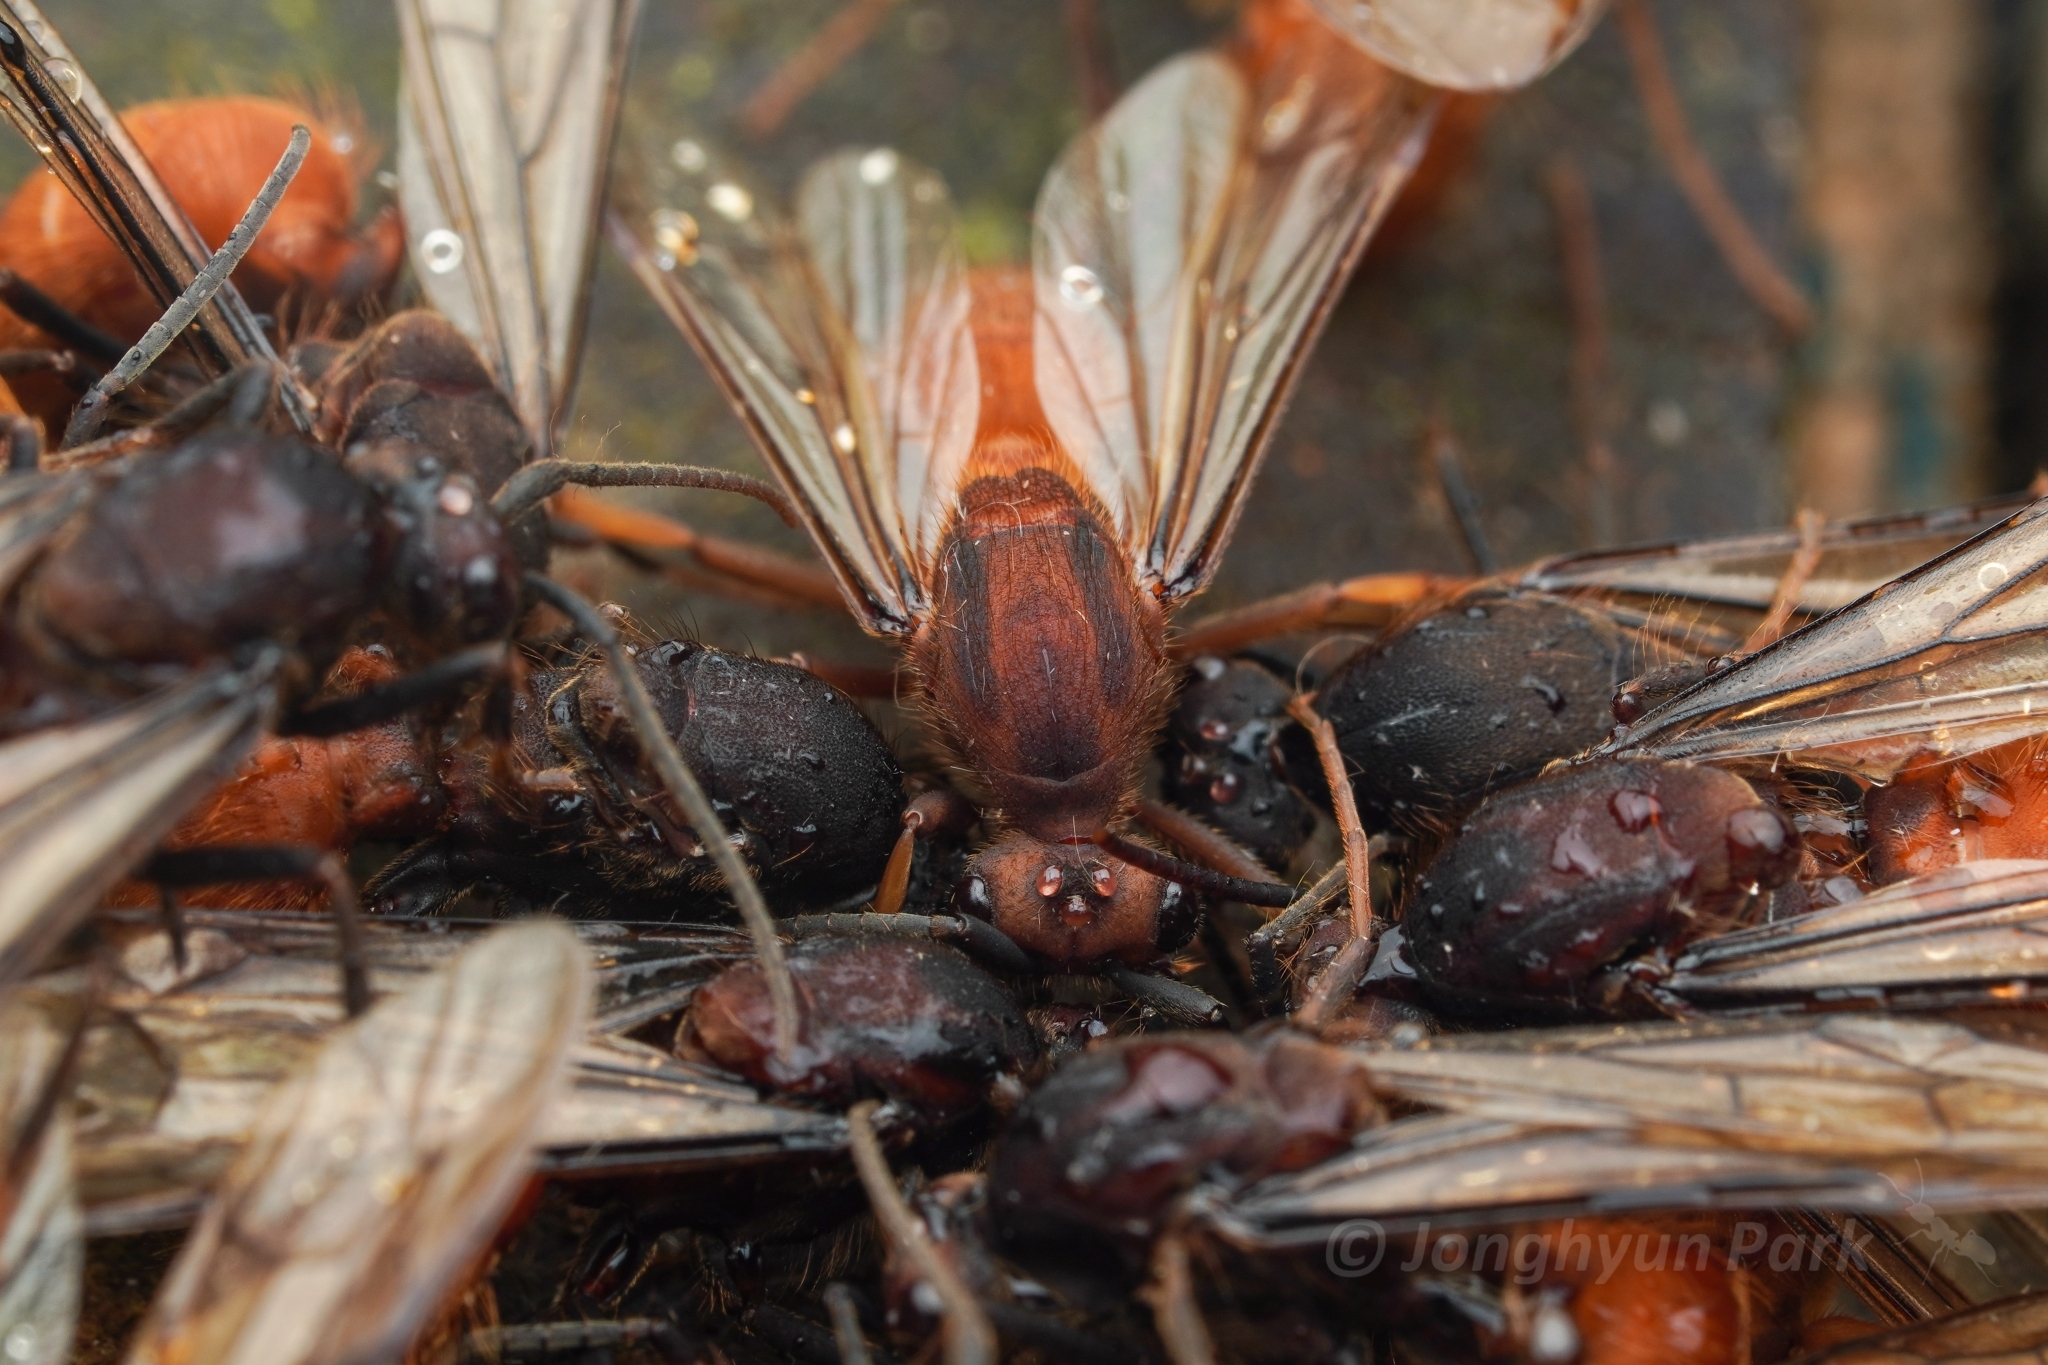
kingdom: Animalia
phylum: Arthropoda
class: Insecta
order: Hymenoptera
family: Formicidae
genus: Eciton
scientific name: Eciton hamatum
